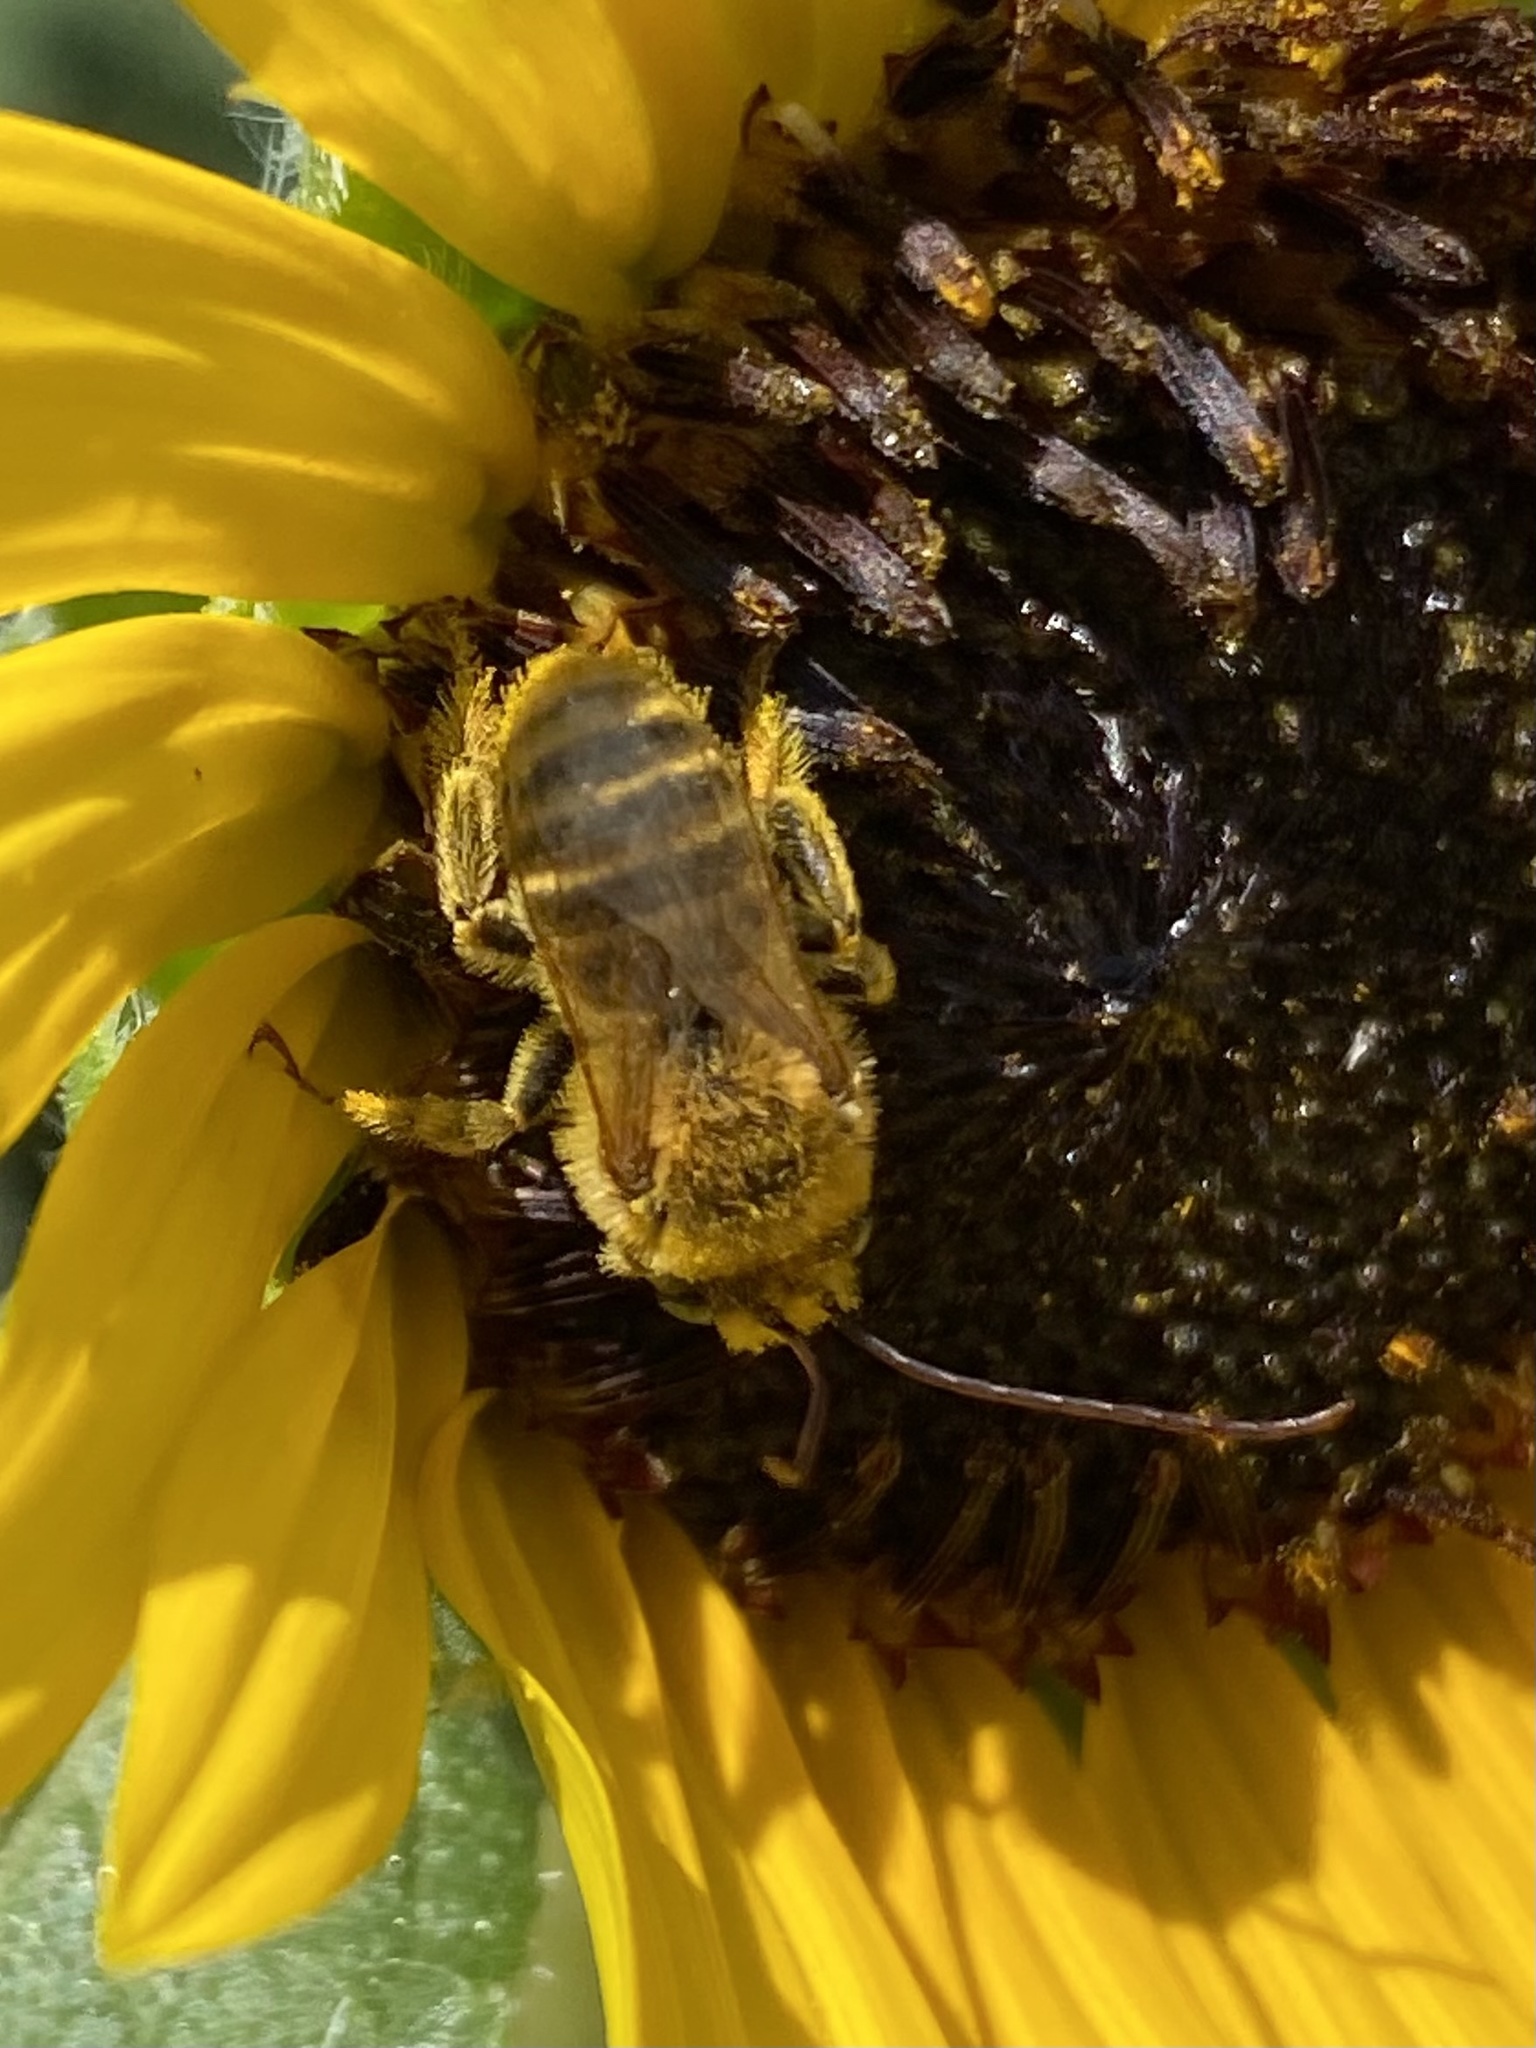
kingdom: Animalia
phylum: Arthropoda
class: Insecta
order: Hymenoptera
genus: Eumelissodes
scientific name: Eumelissodes
